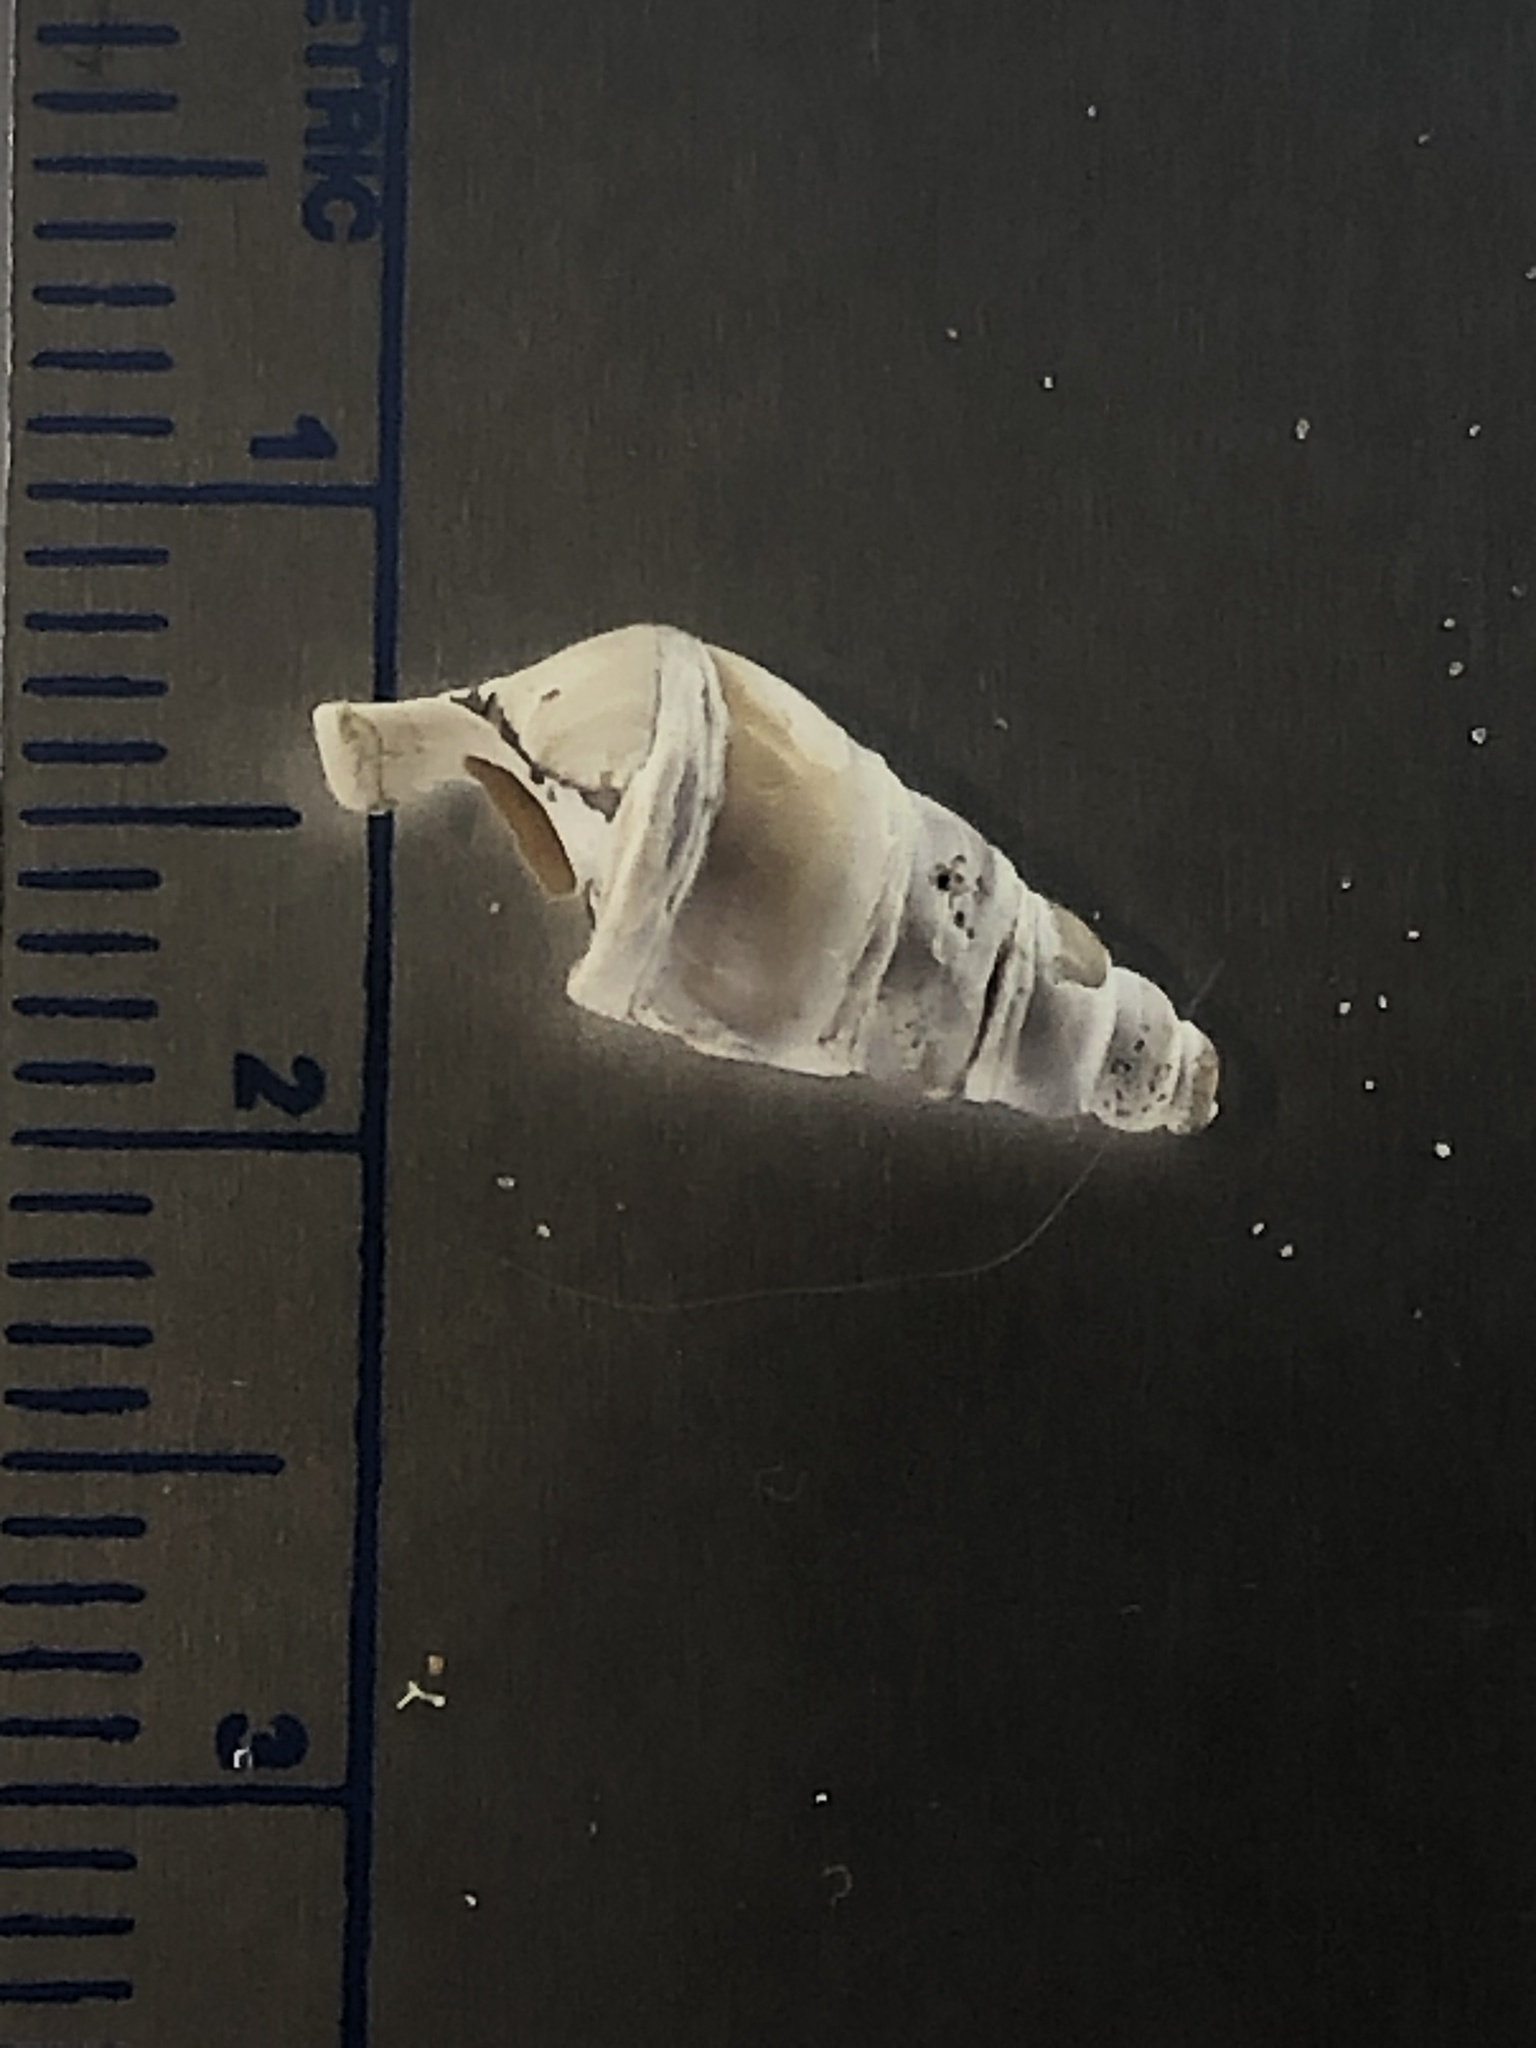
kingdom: Animalia
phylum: Mollusca
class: Gastropoda
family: Pleuroceridae
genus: Elimia
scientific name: Elimia livescens
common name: Liver elimia
